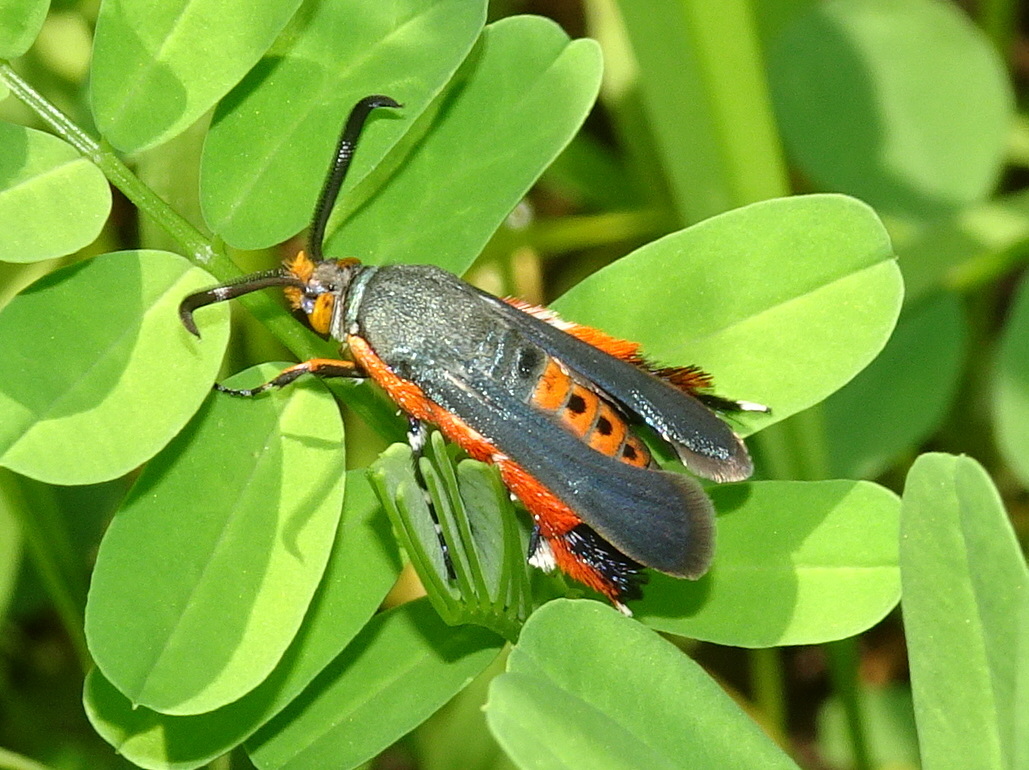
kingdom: Animalia
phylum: Arthropoda
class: Insecta
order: Lepidoptera
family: Sesiidae
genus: Eichlinia
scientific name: Eichlinia cucurbitae
